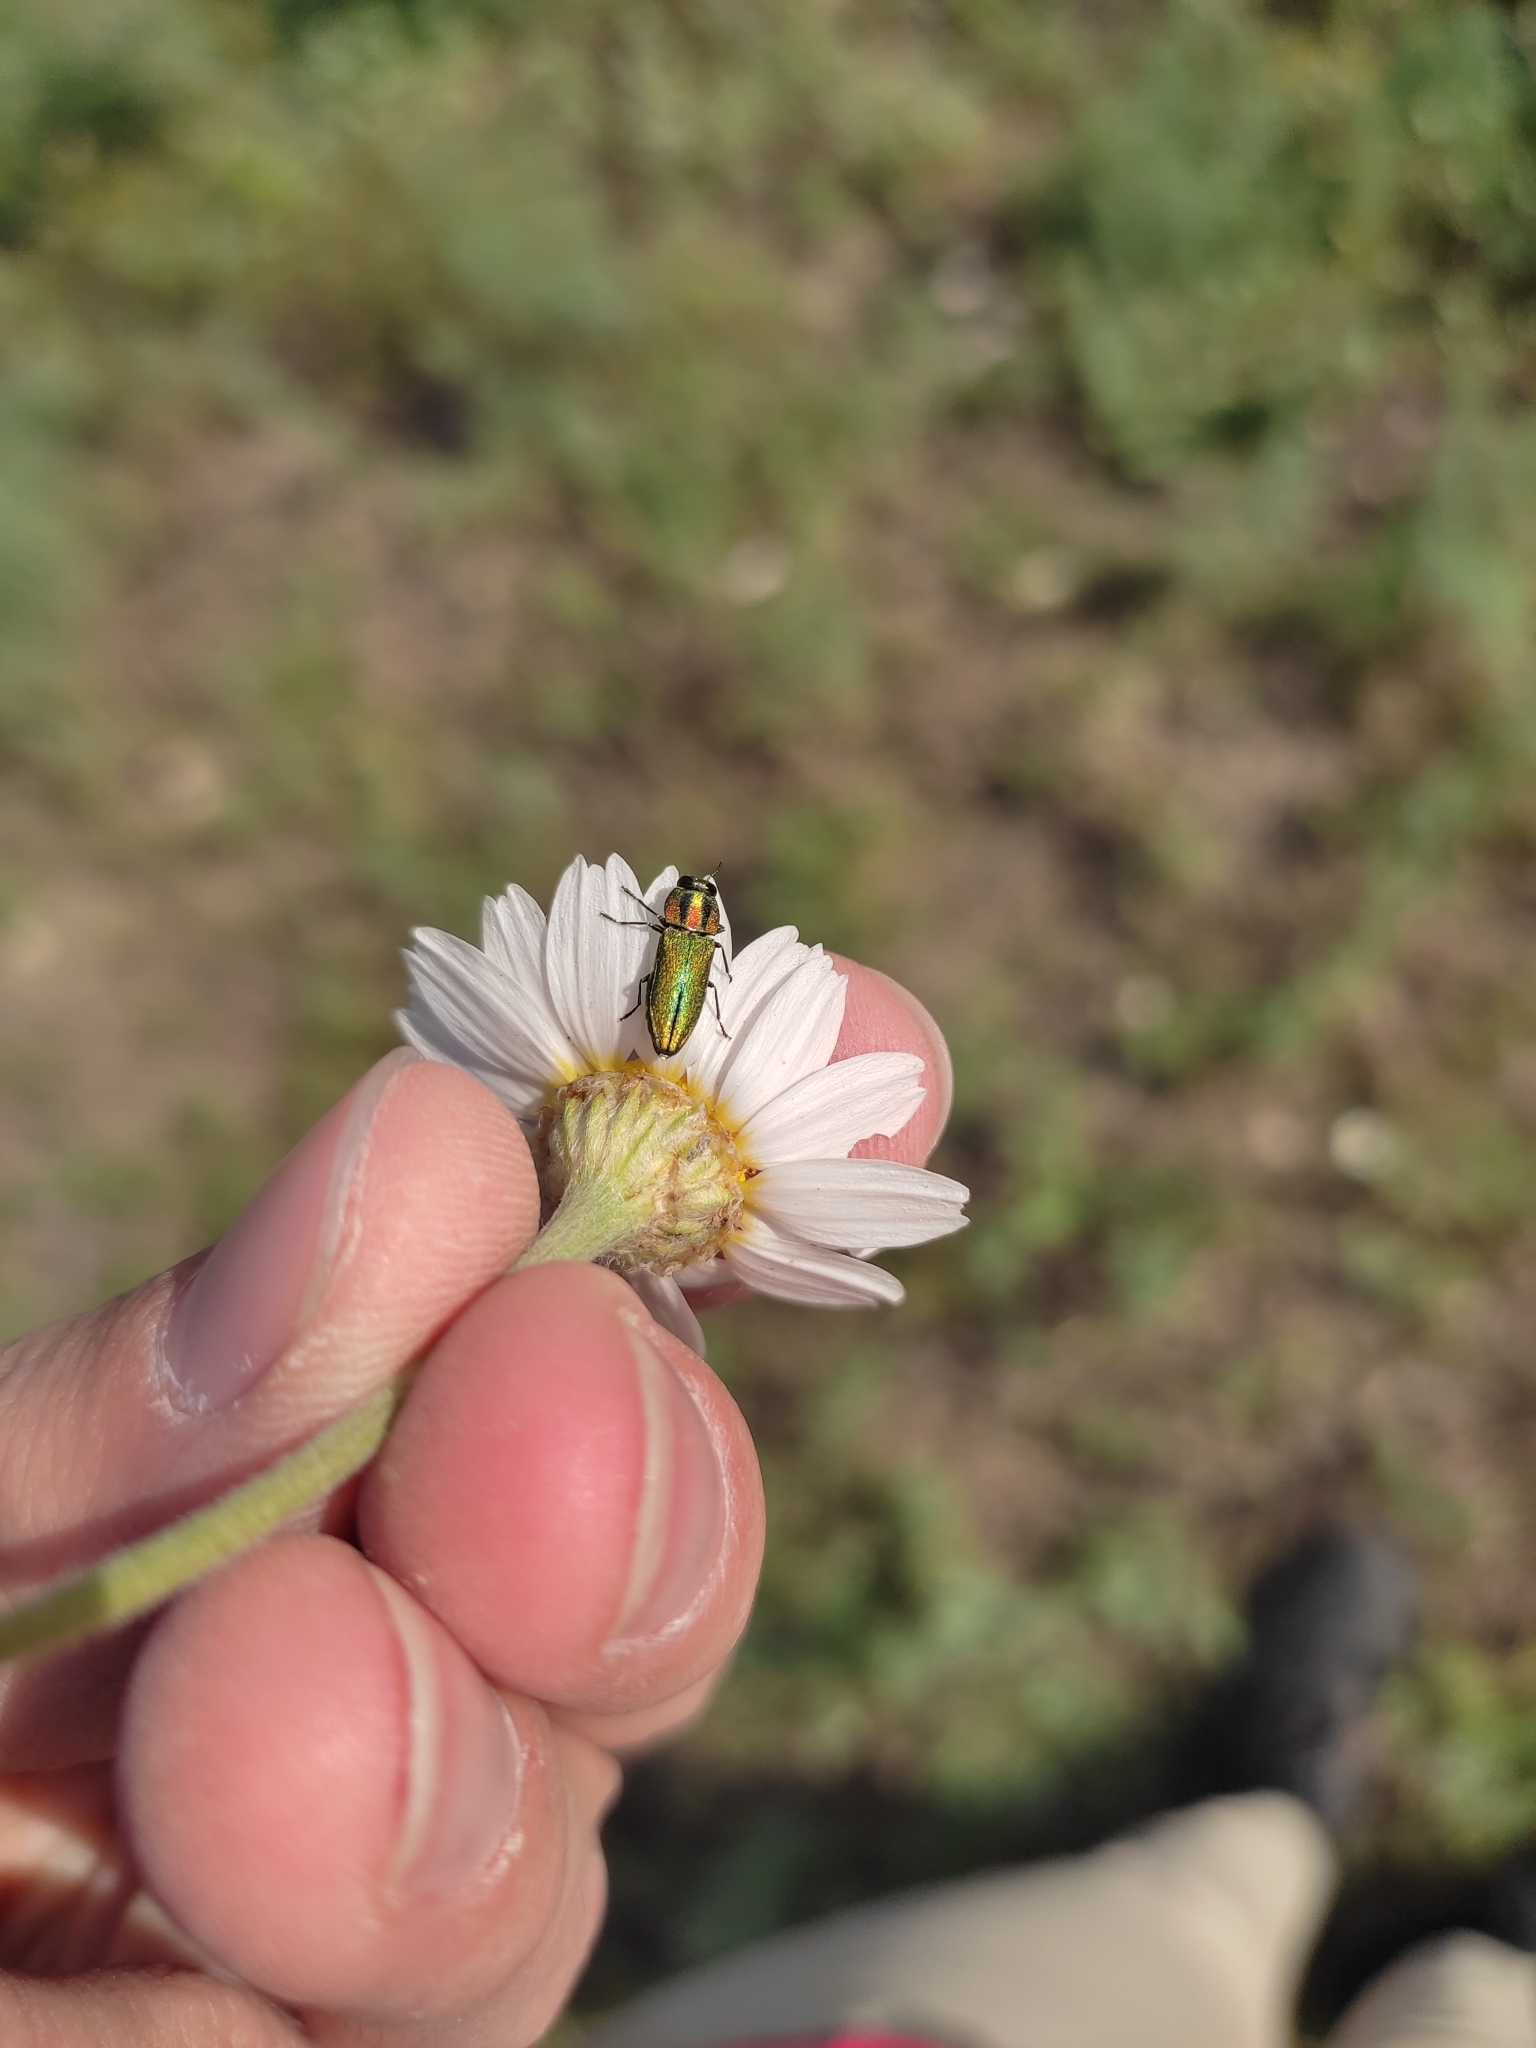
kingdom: Animalia
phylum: Arthropoda
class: Insecta
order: Coleoptera
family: Buprestidae
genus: Anthaxia
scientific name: Anthaxia nitidula
